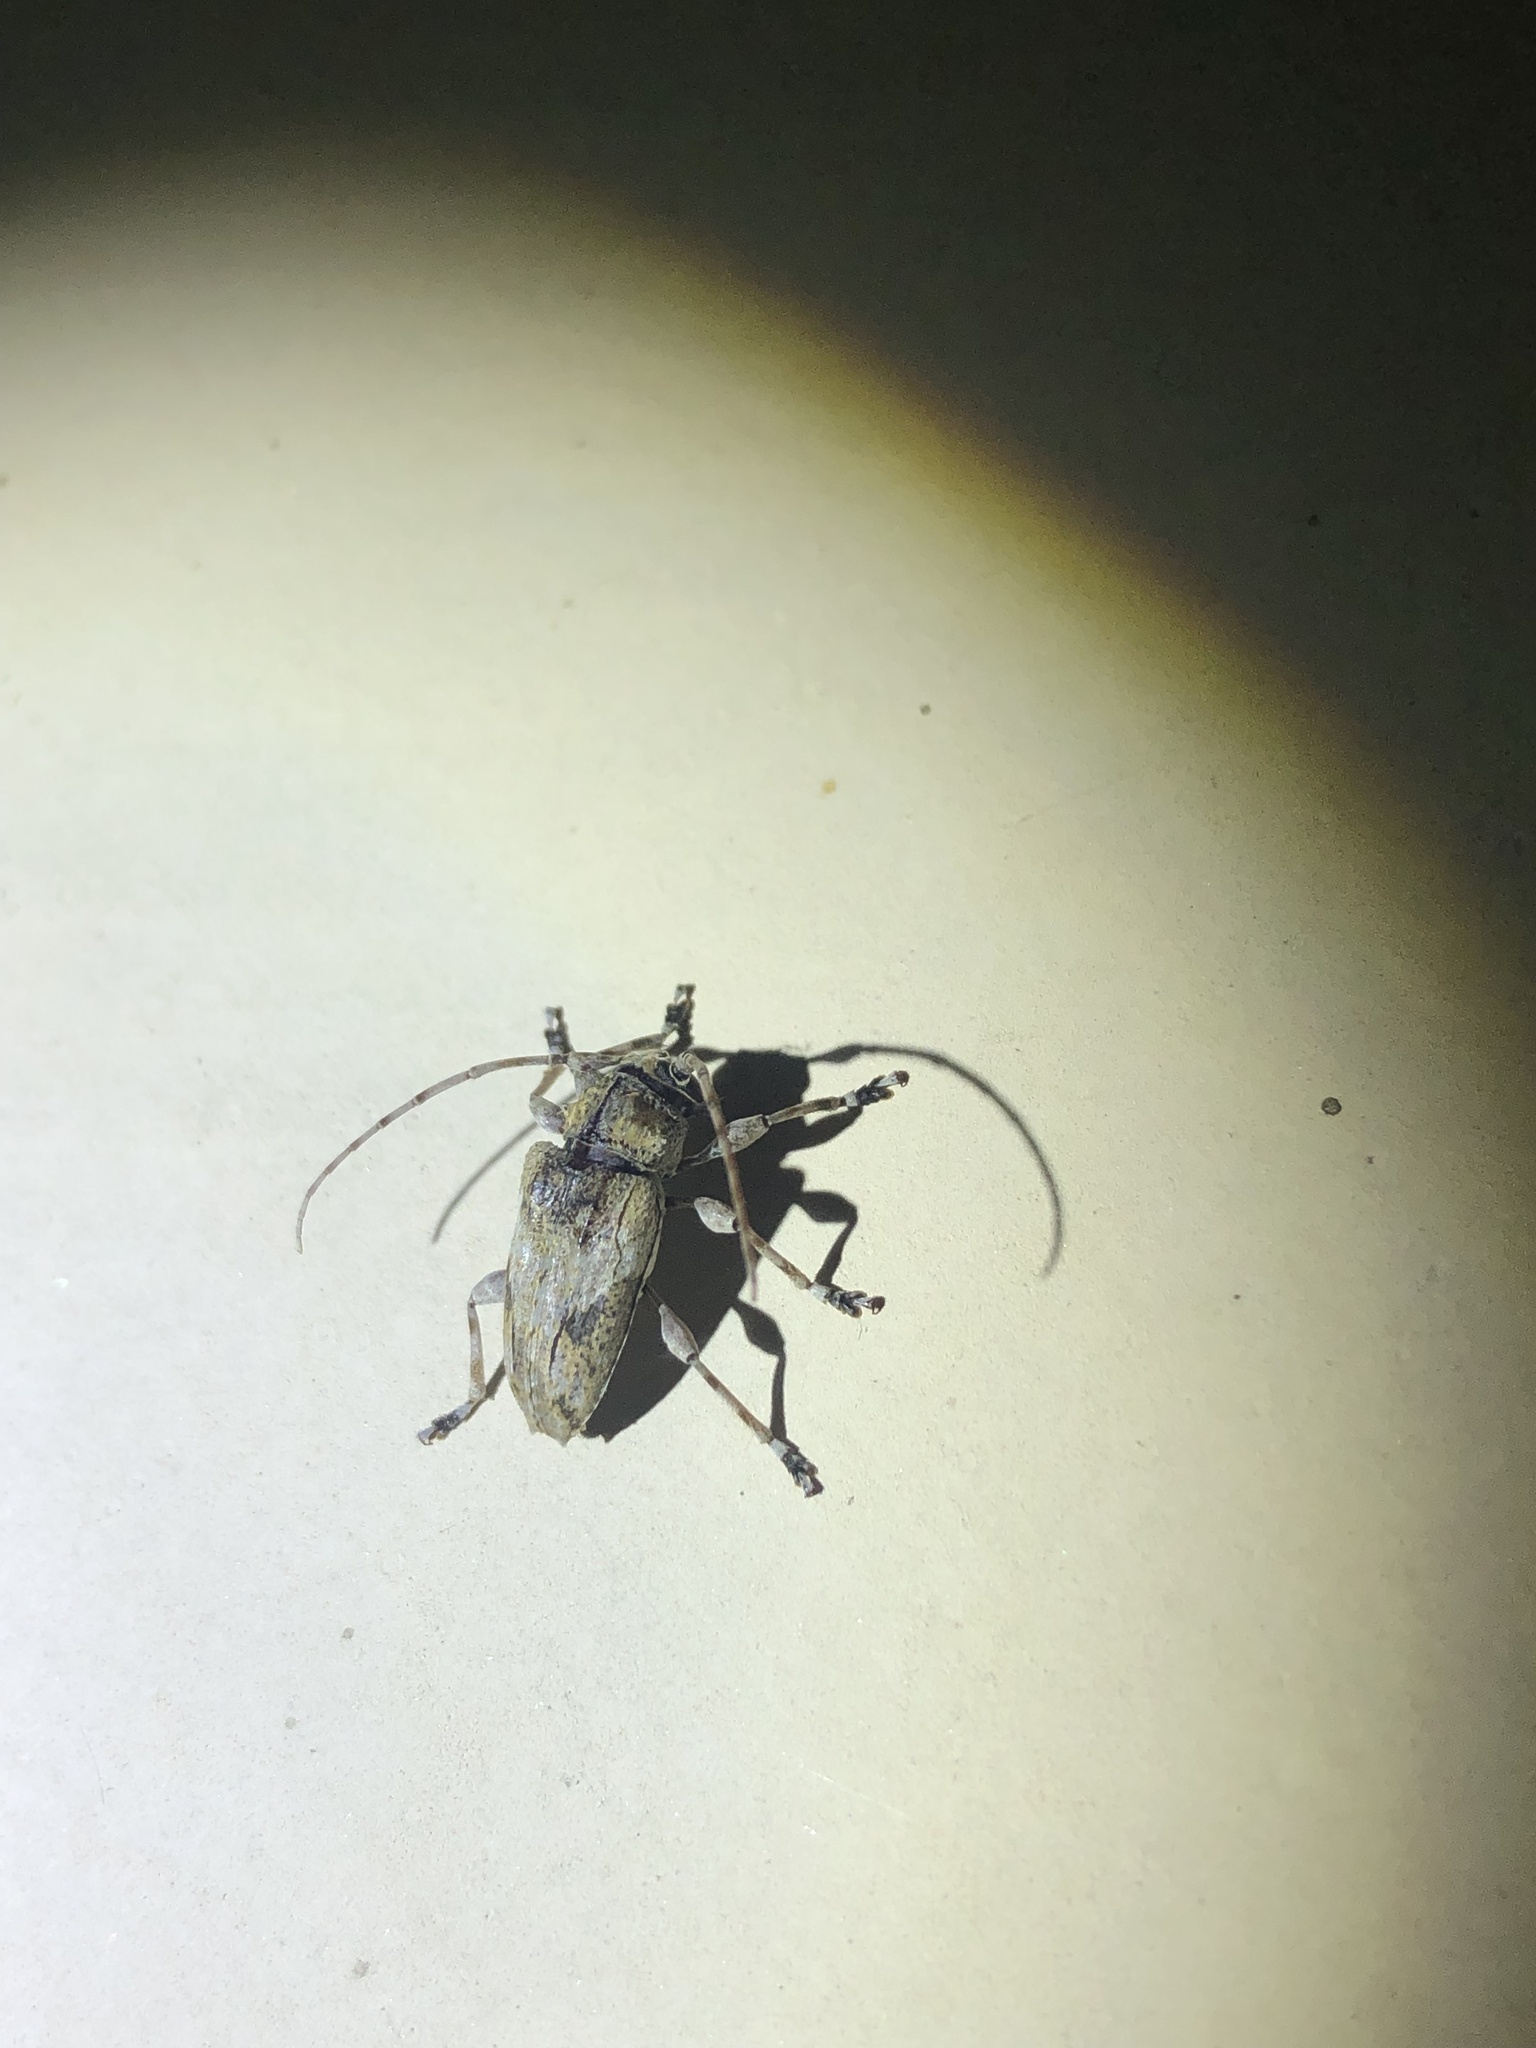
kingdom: Animalia
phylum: Arthropoda
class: Insecta
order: Coleoptera
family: Cerambycidae
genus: Aegomorphus
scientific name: Aegomorphus
